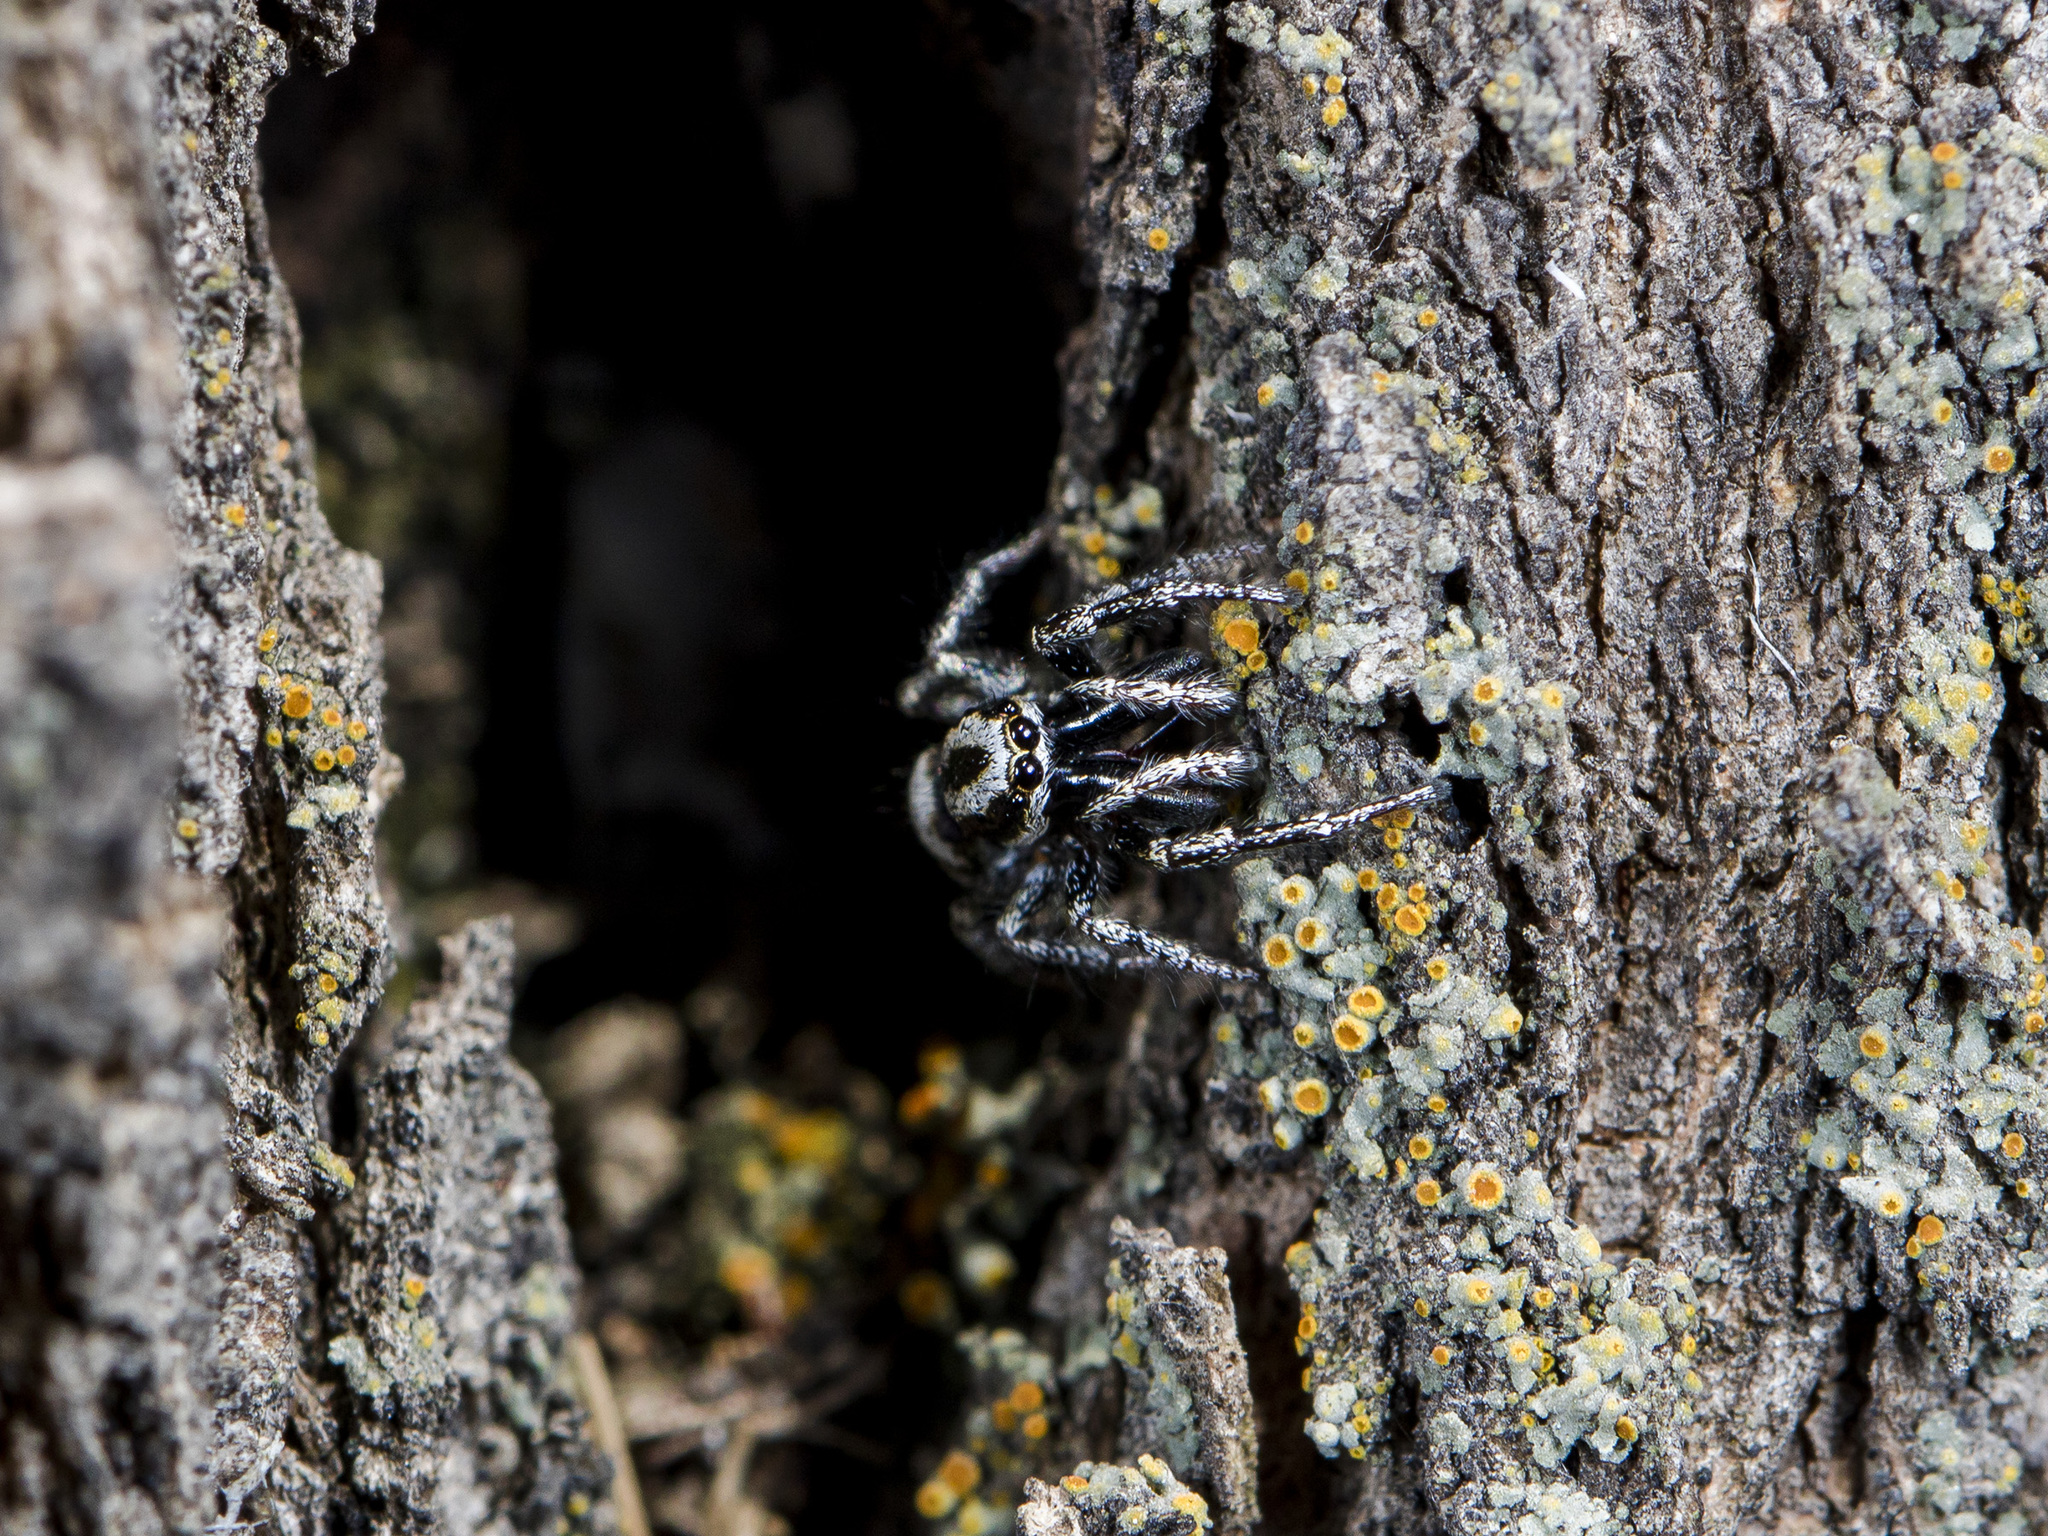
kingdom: Animalia
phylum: Arthropoda
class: Arachnida
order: Araneae
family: Salticidae
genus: Salticus
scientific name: Salticus tricinctus
